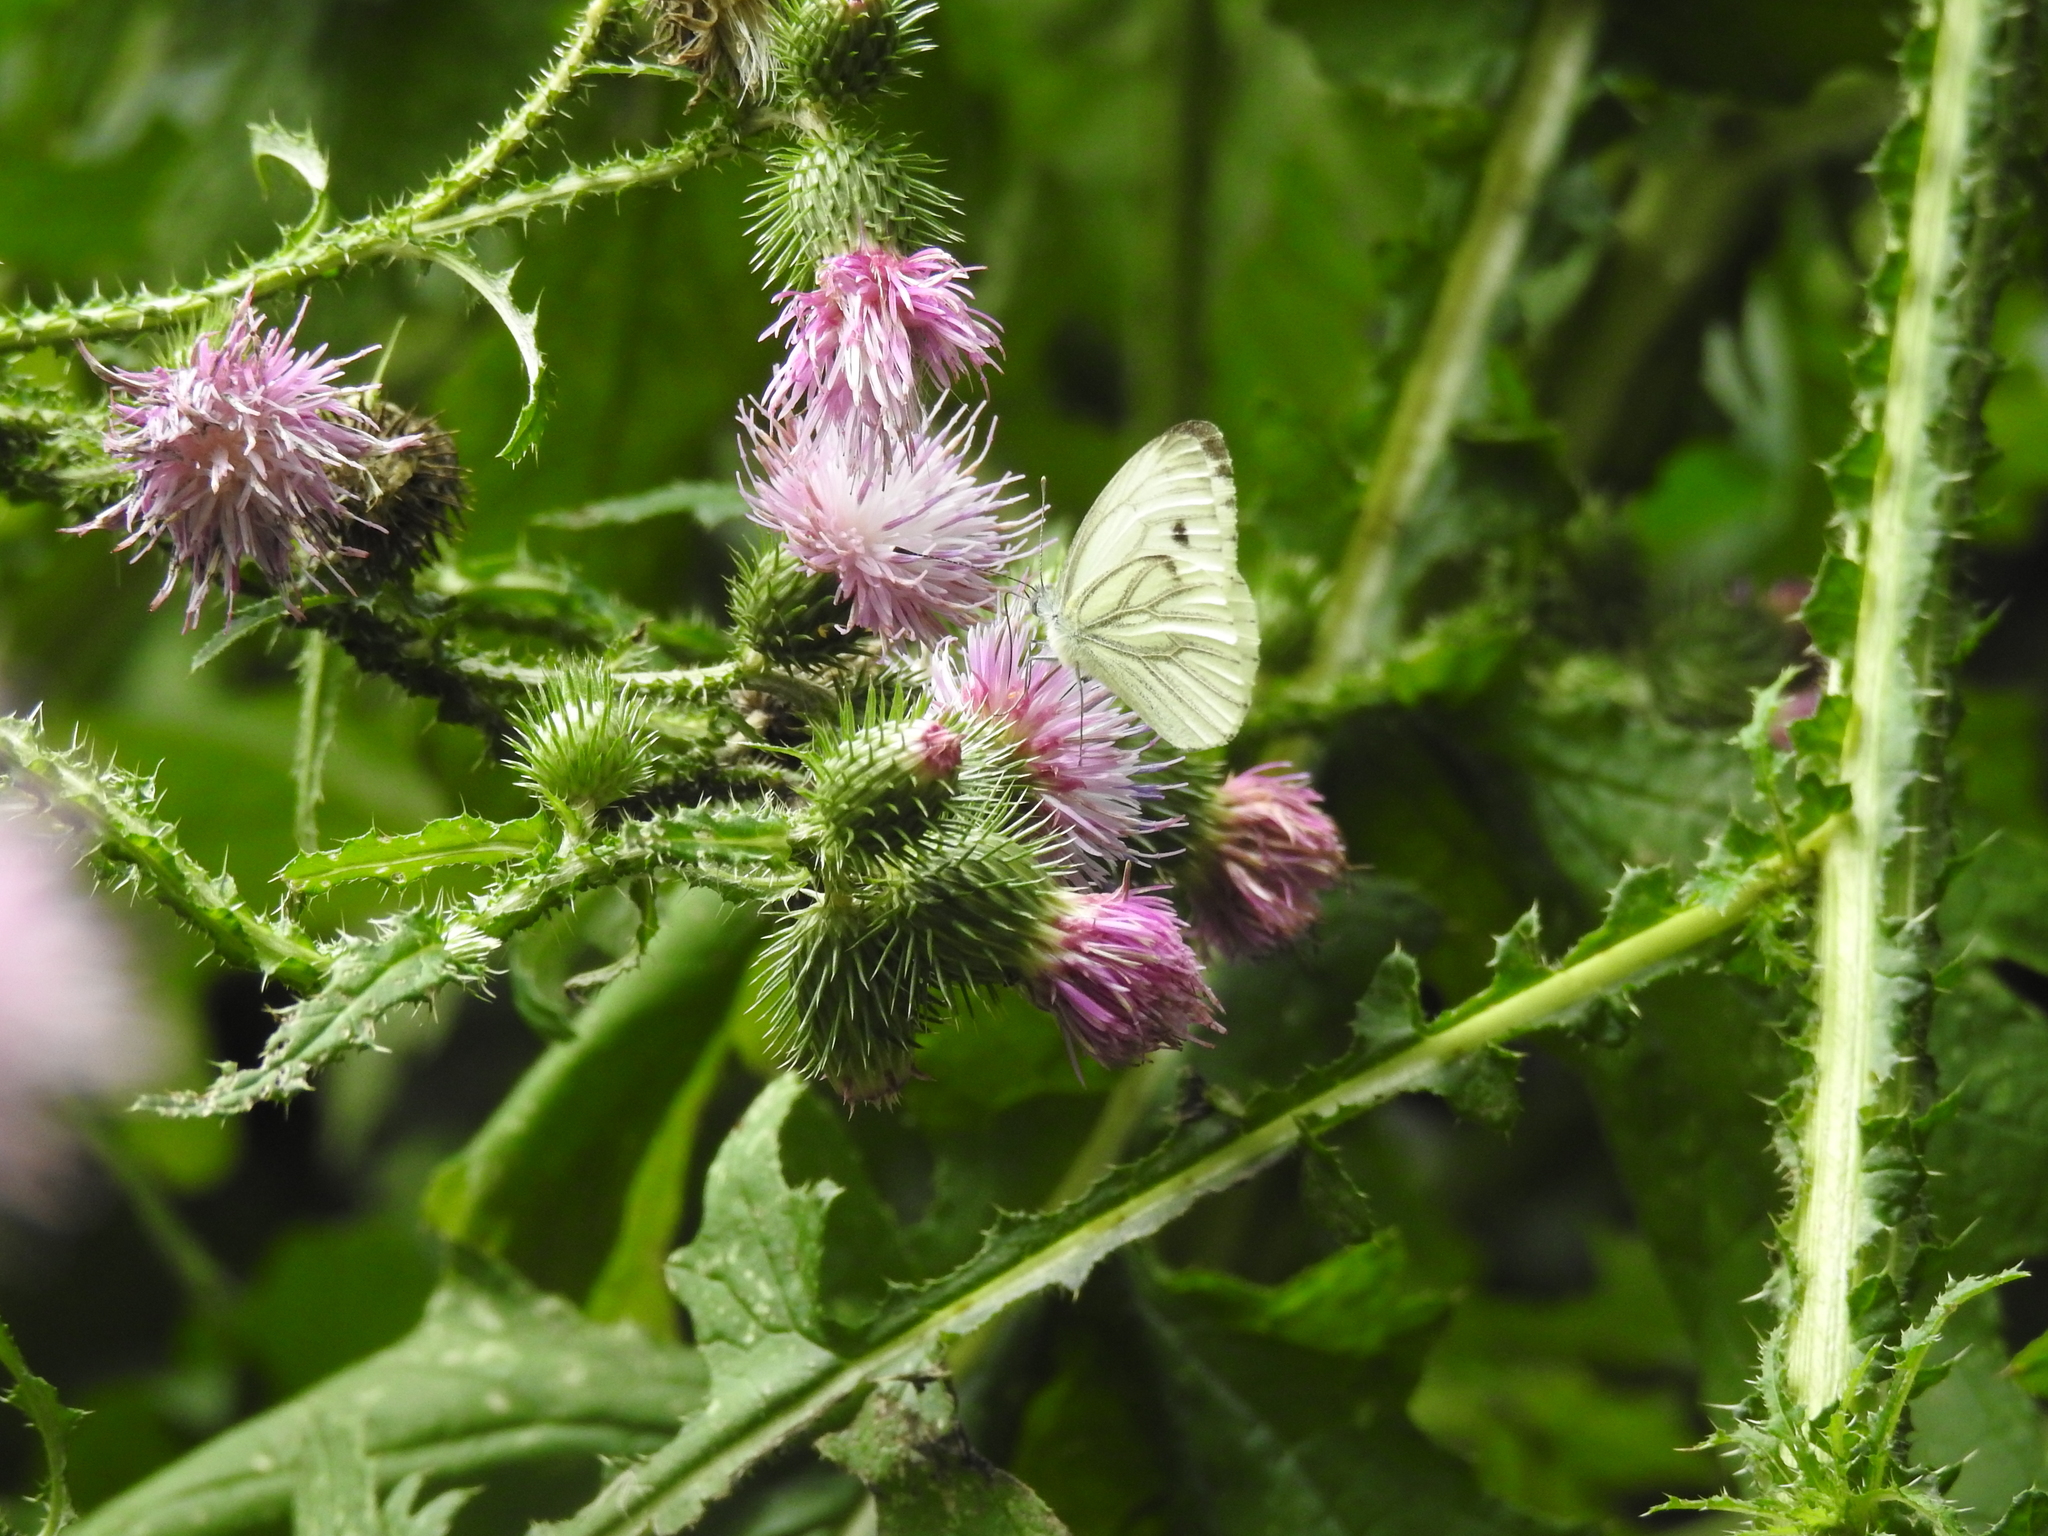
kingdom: Animalia
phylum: Arthropoda
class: Insecta
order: Lepidoptera
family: Pieridae
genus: Pieris
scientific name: Pieris napi
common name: Green-veined white
